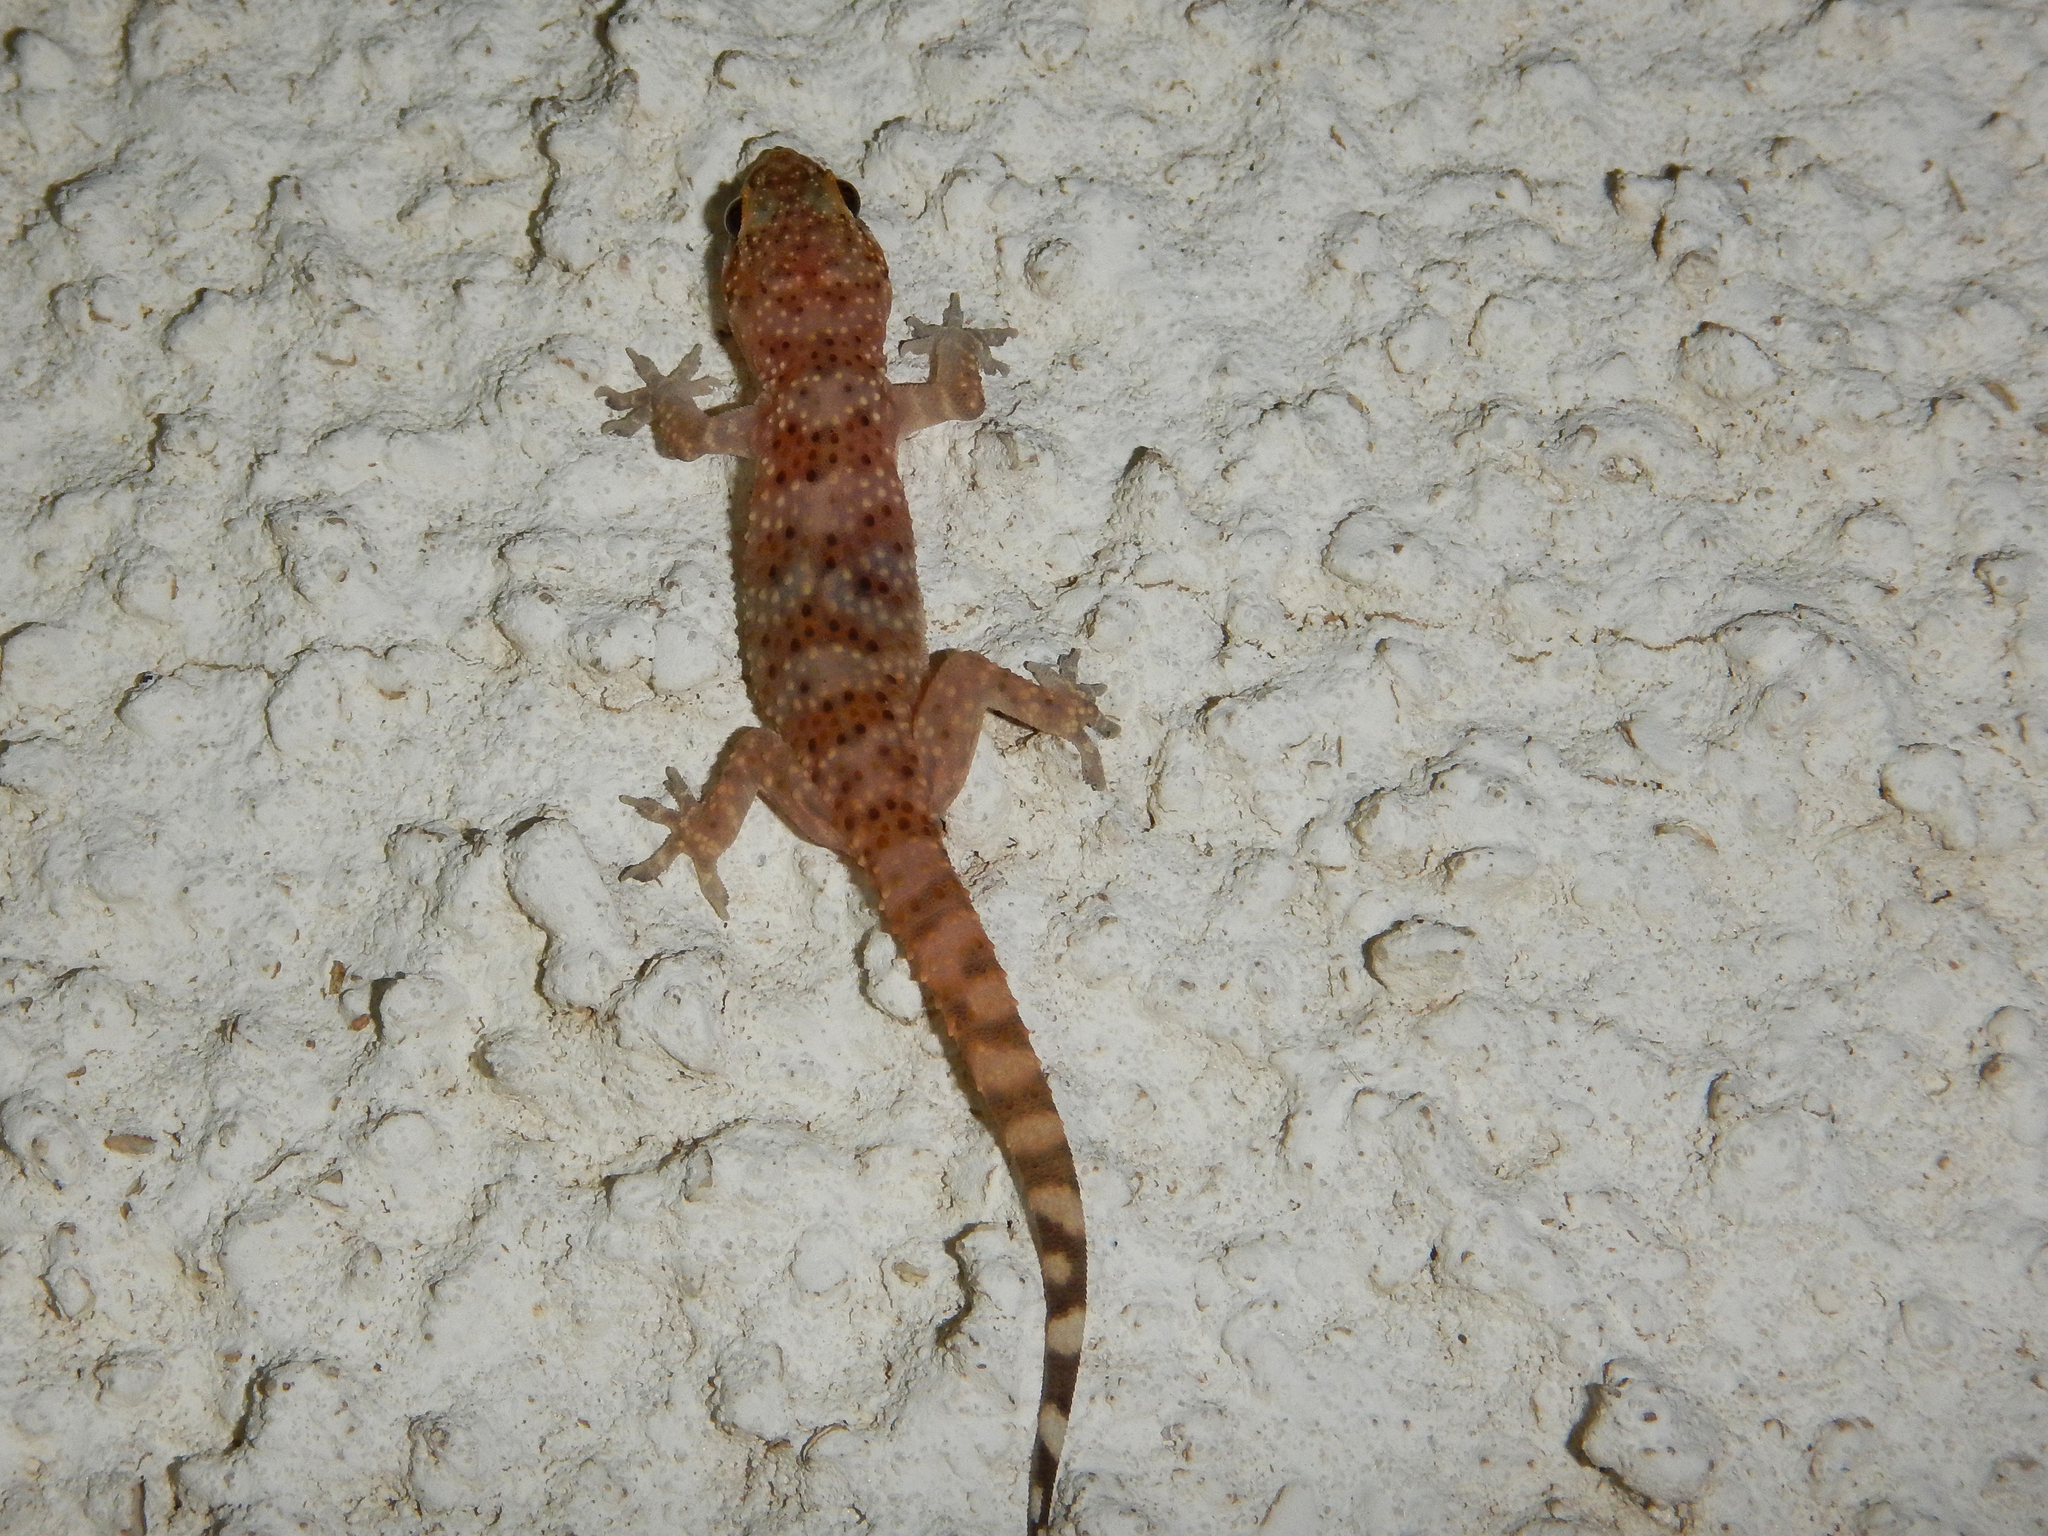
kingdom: Animalia
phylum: Chordata
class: Squamata
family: Gekkonidae
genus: Hemidactylus
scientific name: Hemidactylus turcicus
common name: Turkish gecko
